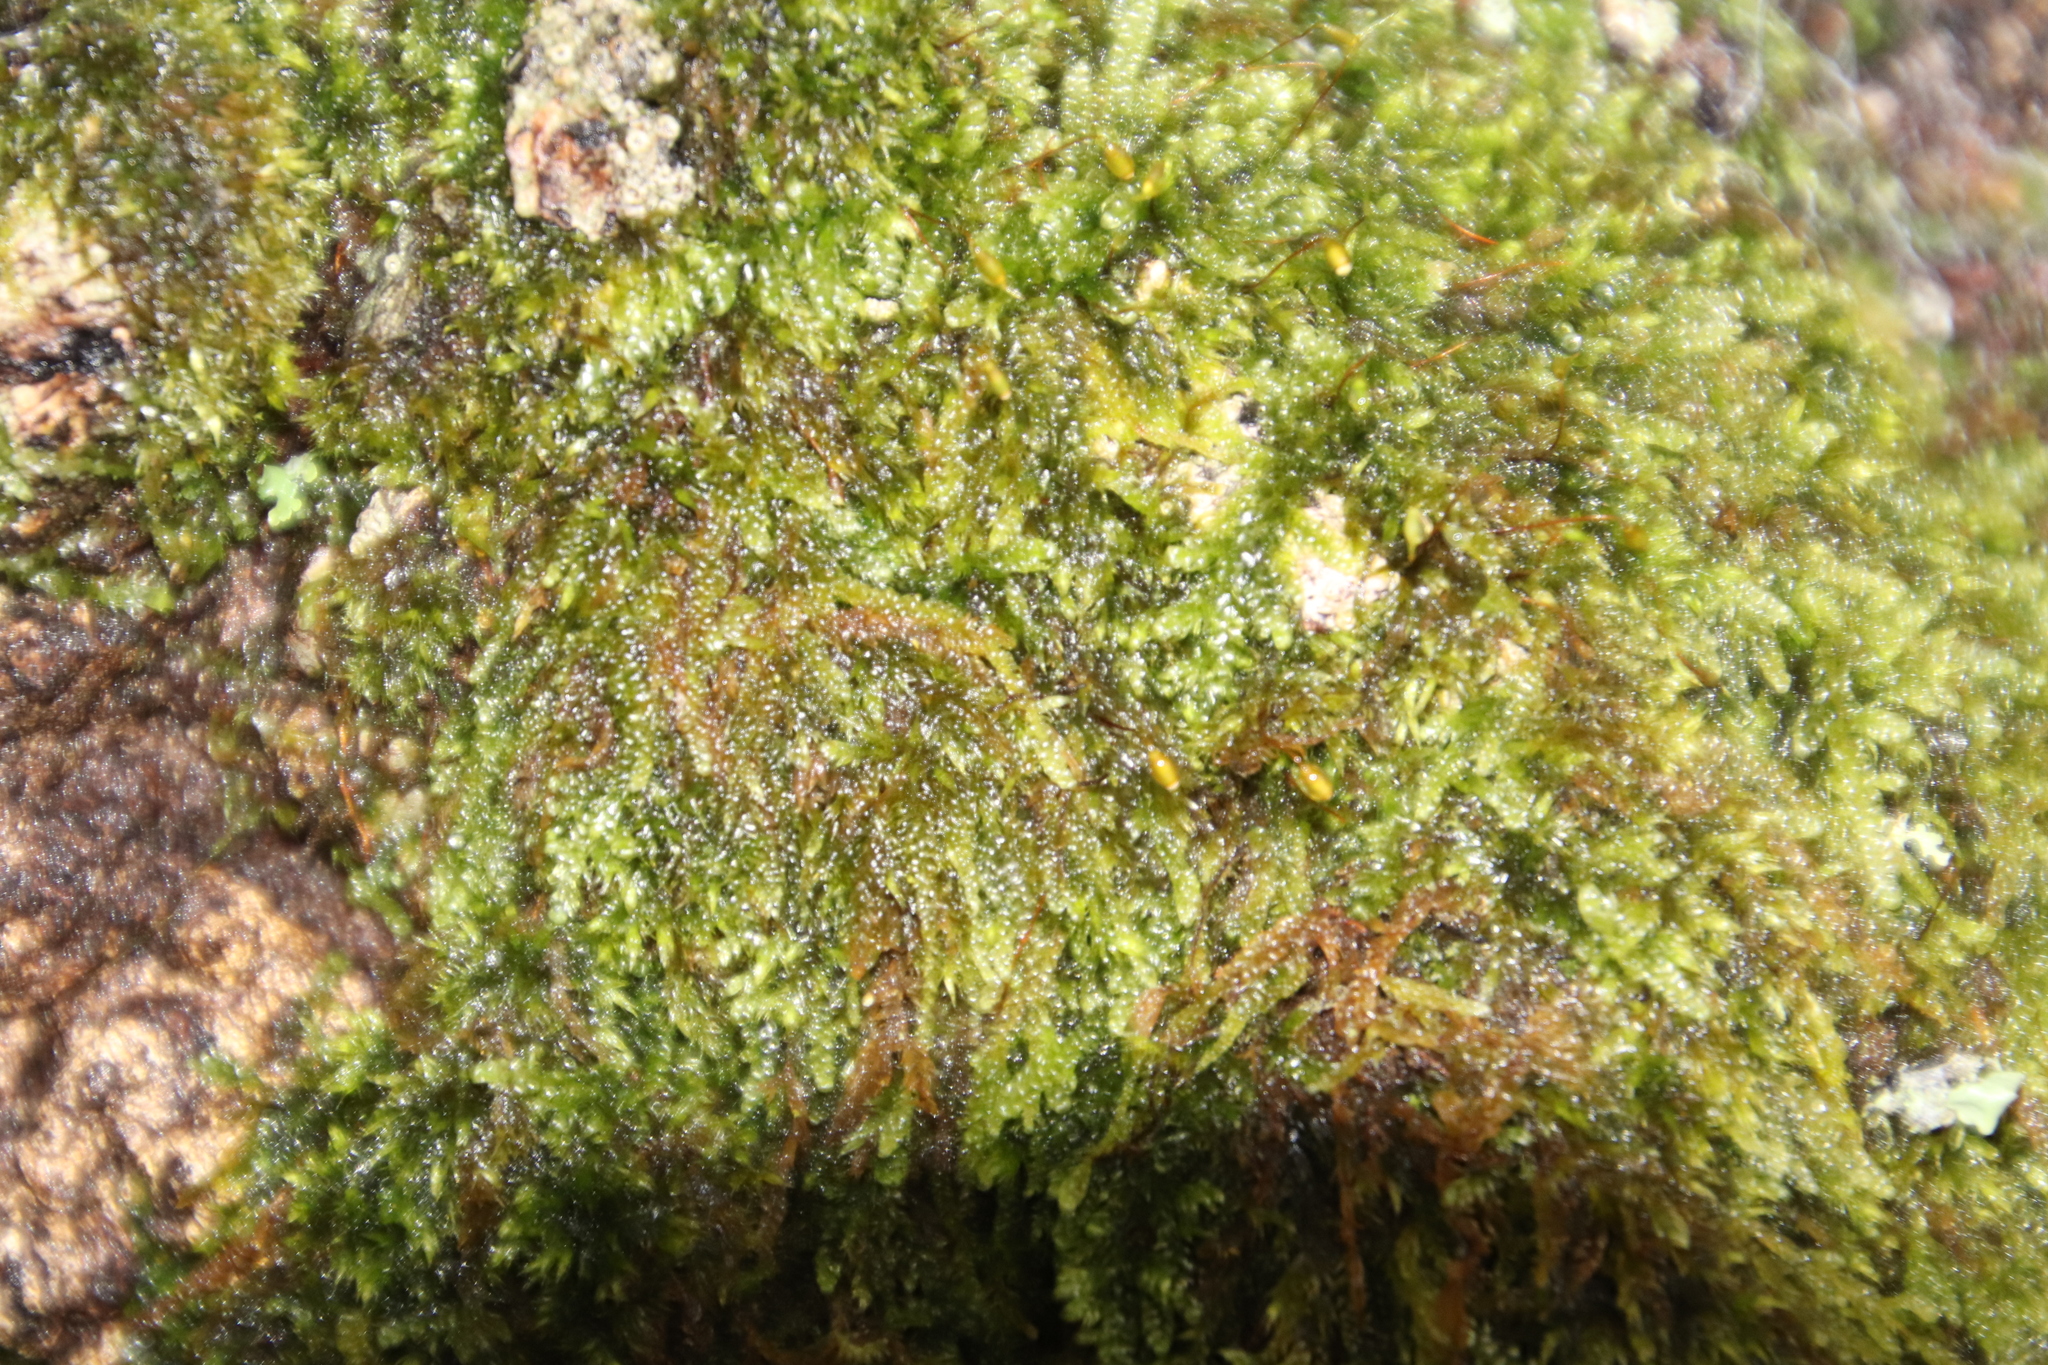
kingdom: Plantae
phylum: Bryophyta
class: Bryopsida
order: Hypnales
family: Hypnaceae
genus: Hypnum
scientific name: Hypnum cupressiforme
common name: Cypress-leaved plait-moss
